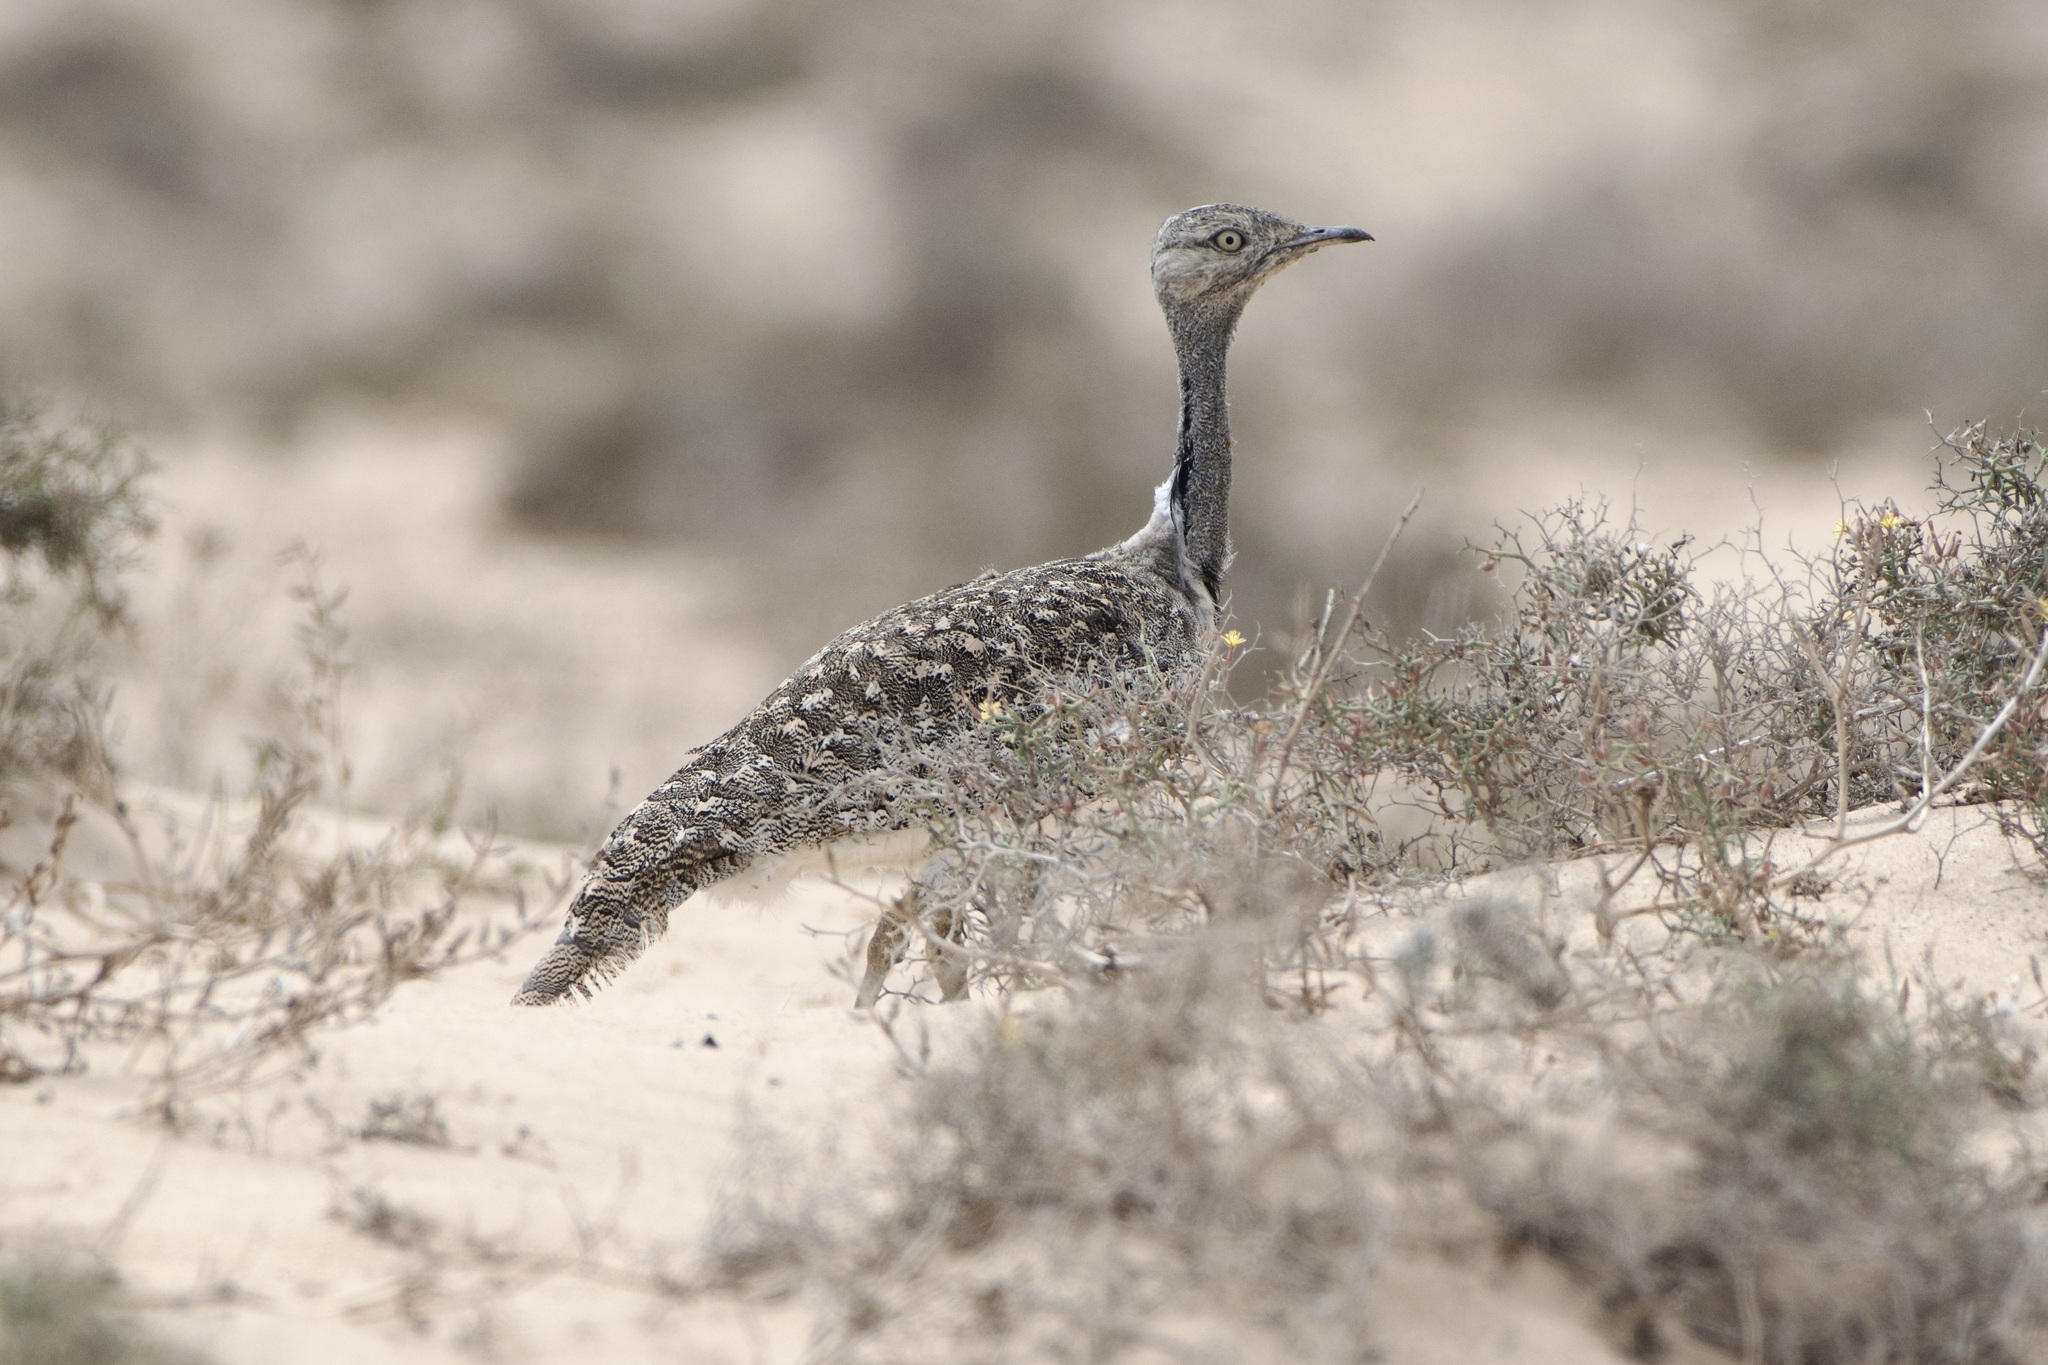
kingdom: Animalia
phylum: Chordata
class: Aves
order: Otidiformes
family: Otididae
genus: Chlamydotis
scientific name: Chlamydotis undulata
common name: Houbara bustard
